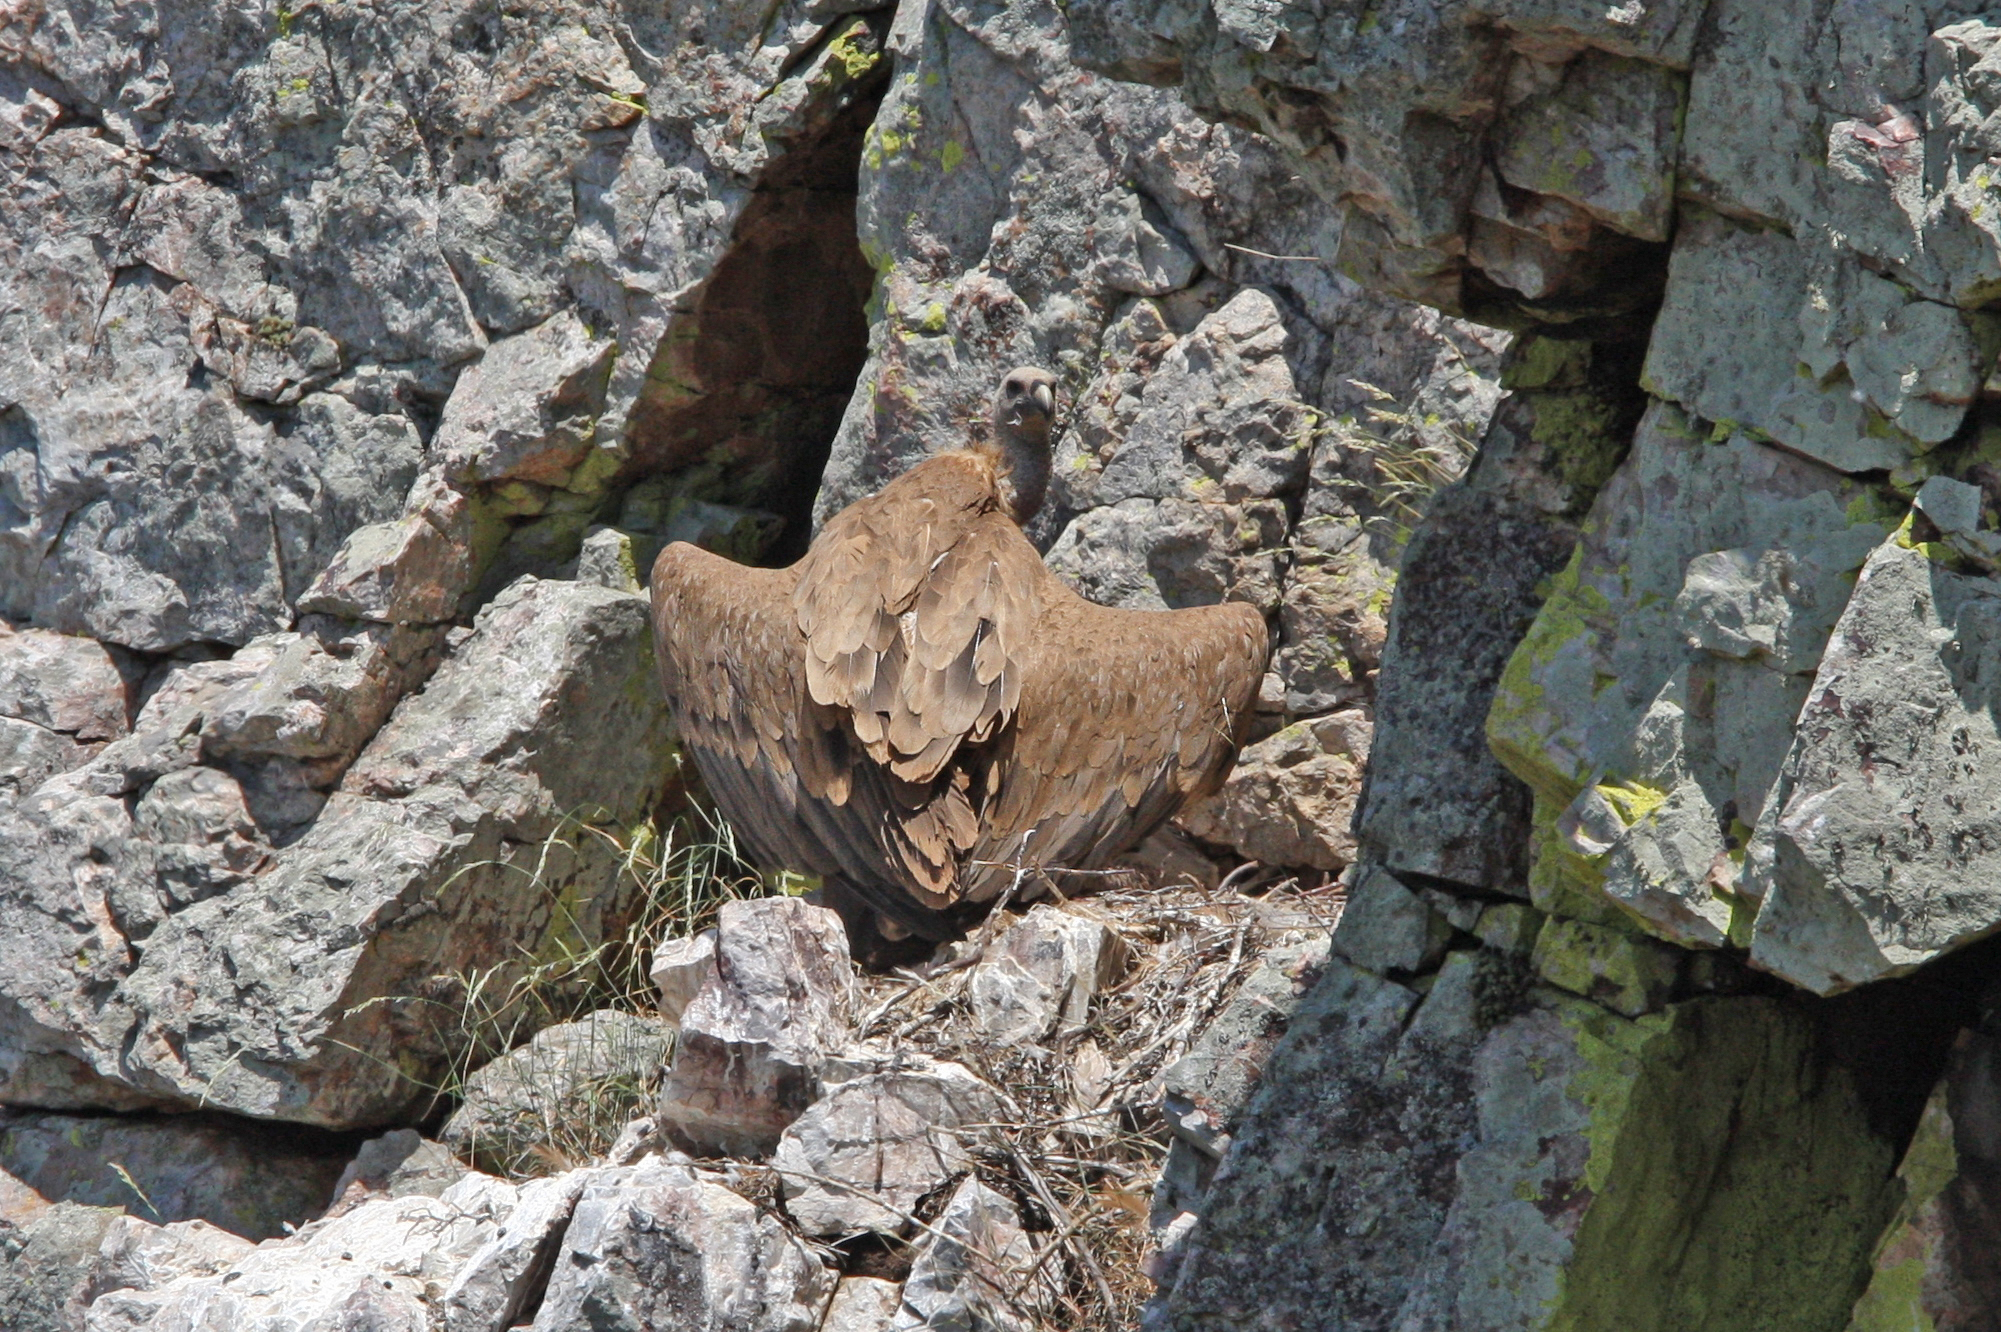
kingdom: Animalia
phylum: Chordata
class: Aves
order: Accipitriformes
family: Accipitridae
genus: Gyps
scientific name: Gyps fulvus
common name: Griffon vulture
